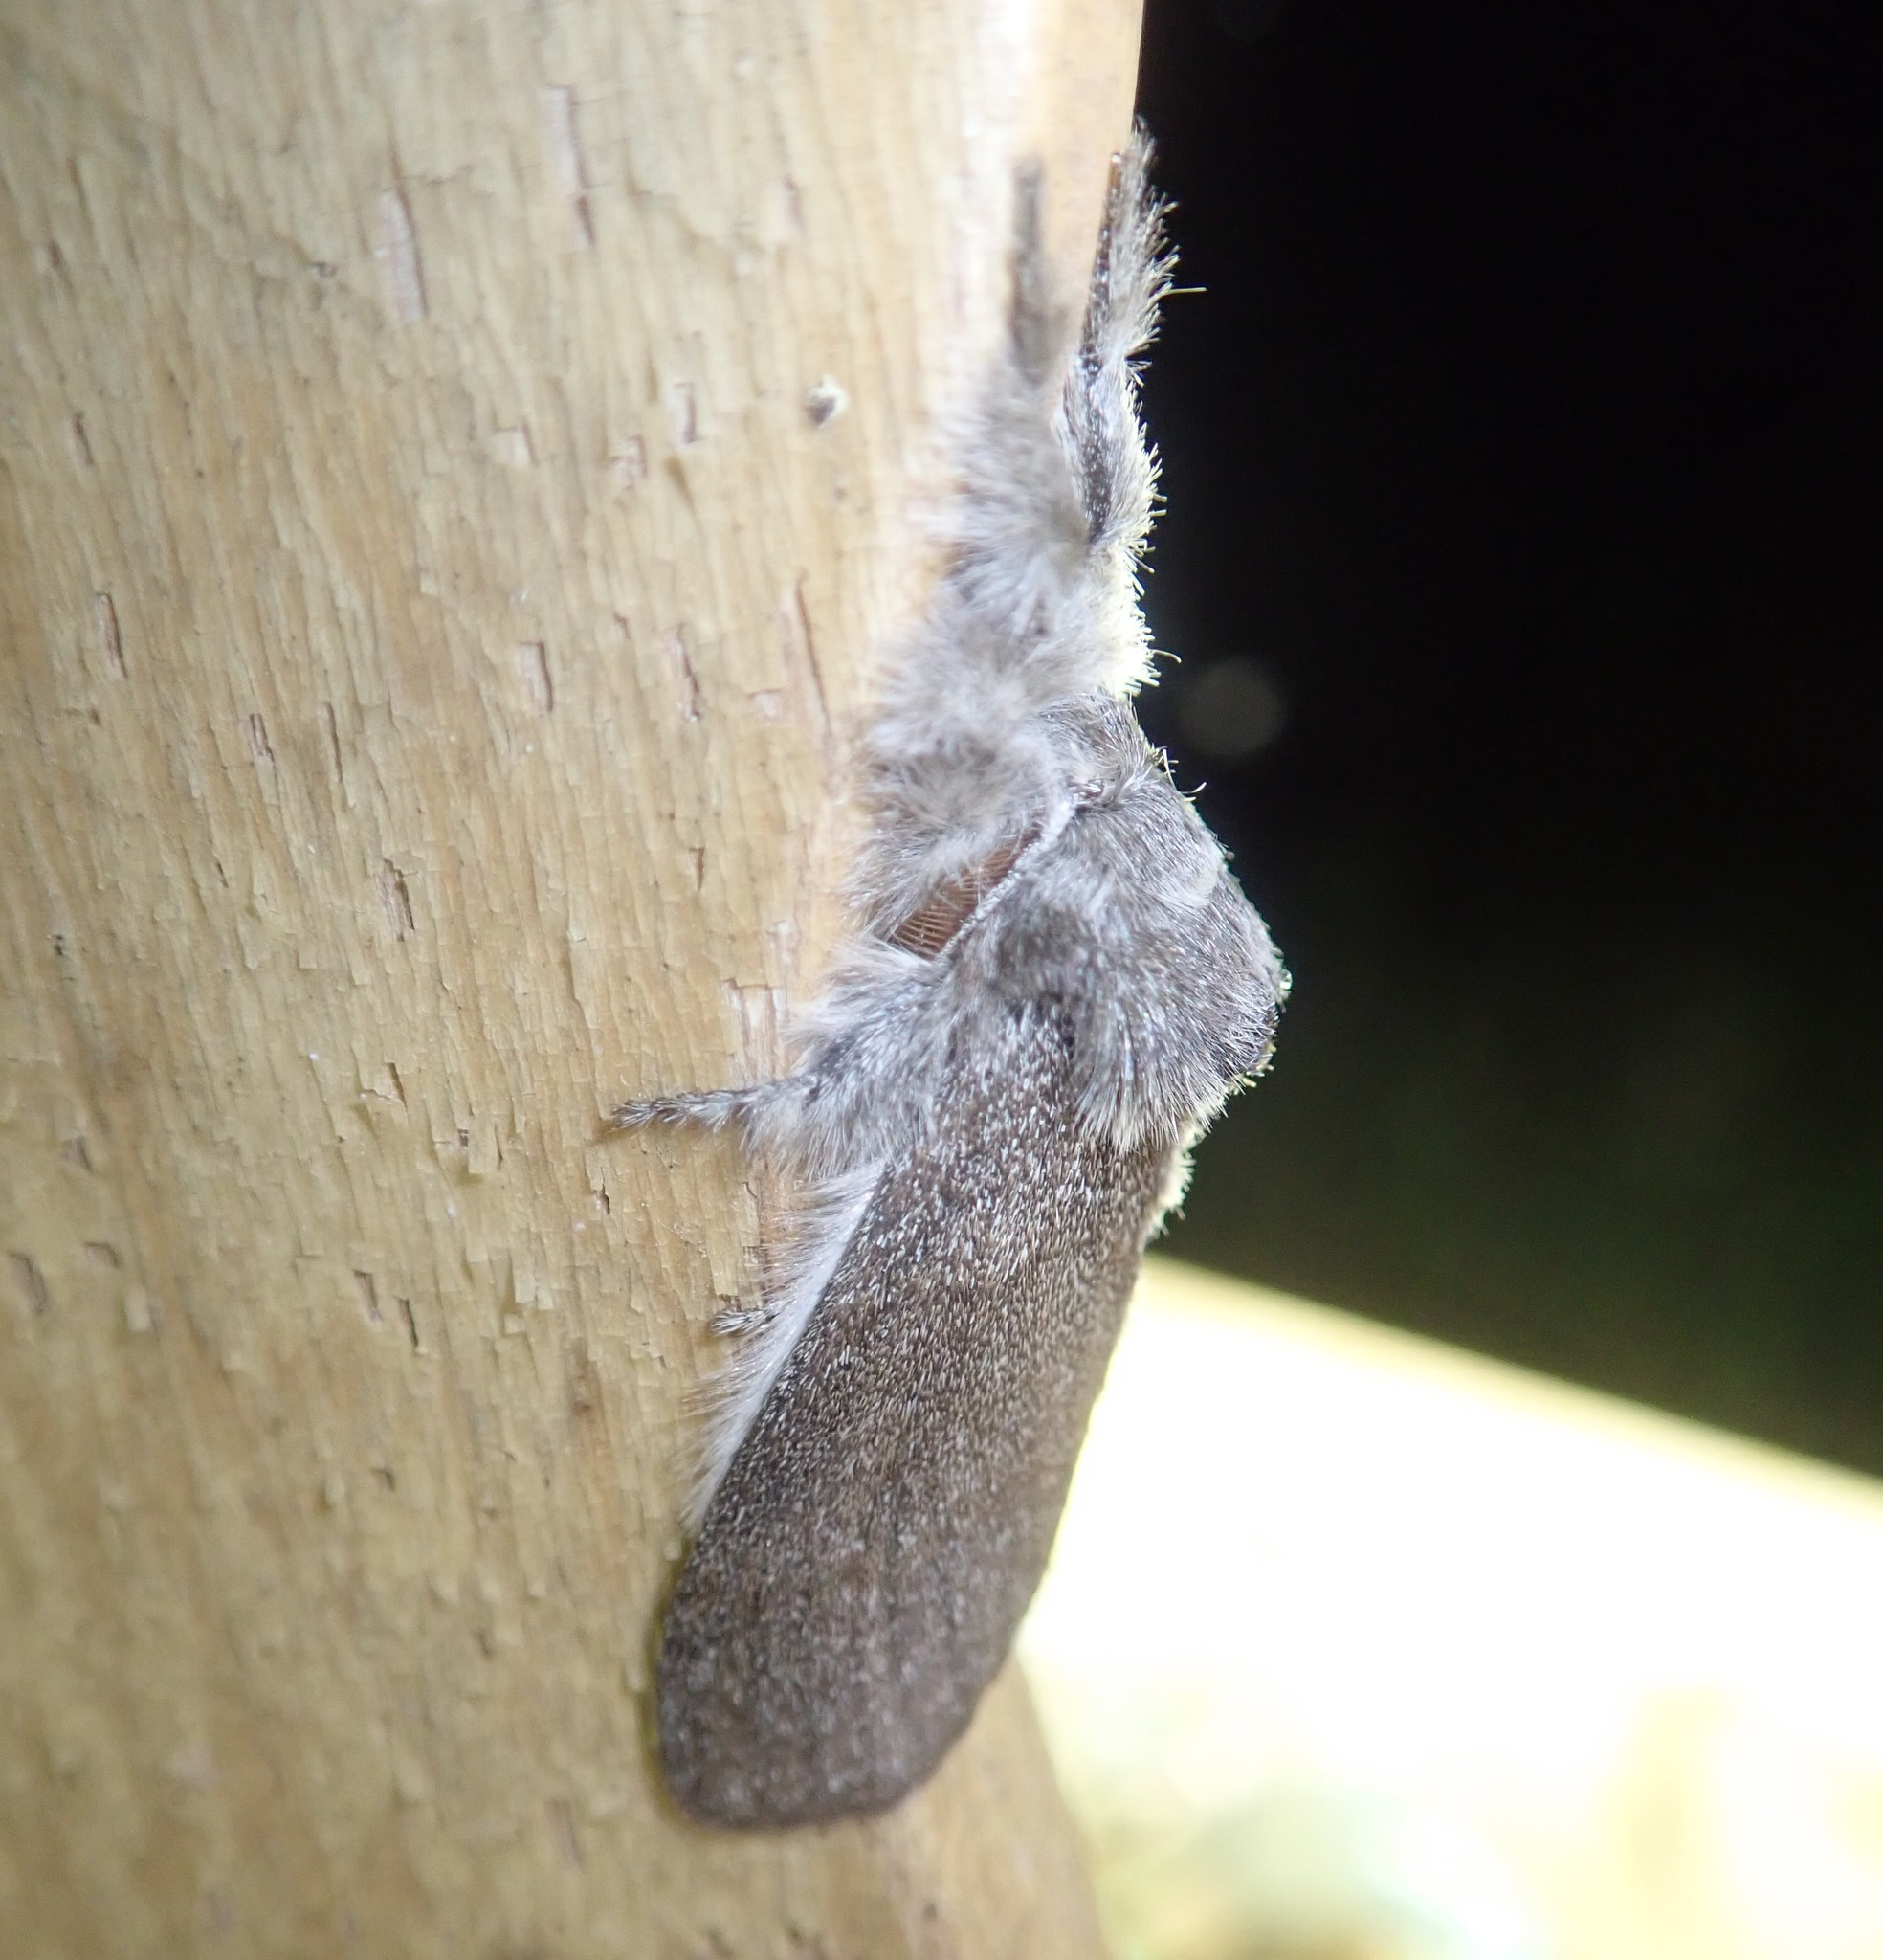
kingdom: Animalia
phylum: Arthropoda
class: Insecta
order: Lepidoptera
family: Erebidae
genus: Calliteara
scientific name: Calliteara pudibunda
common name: Pale tussock
